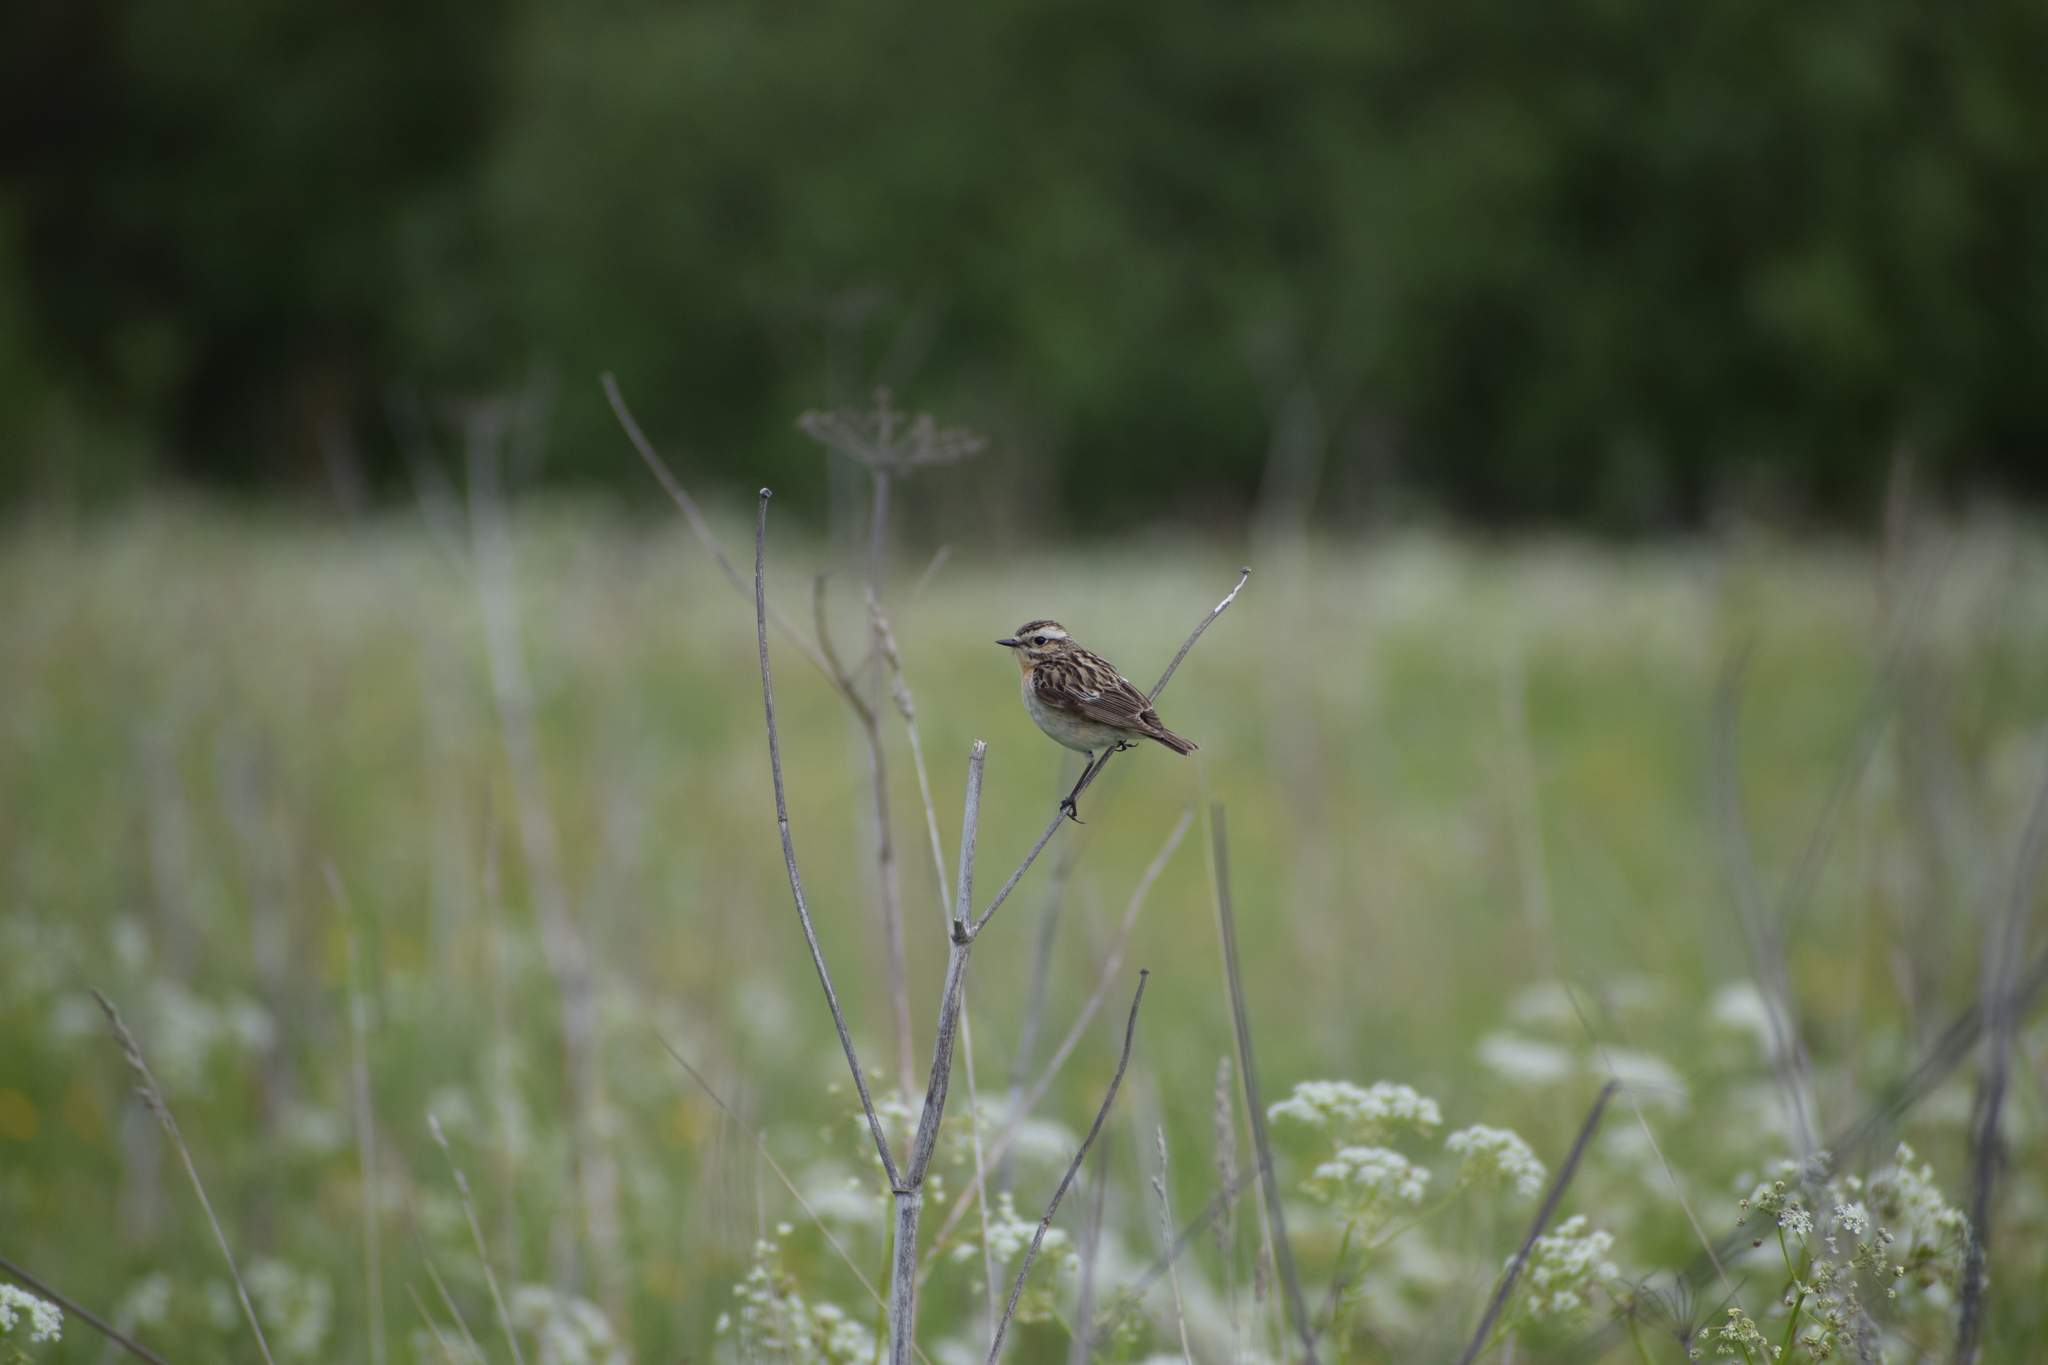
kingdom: Animalia
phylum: Chordata
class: Aves
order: Passeriformes
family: Muscicapidae
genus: Saxicola
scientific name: Saxicola rubetra
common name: Whinchat
